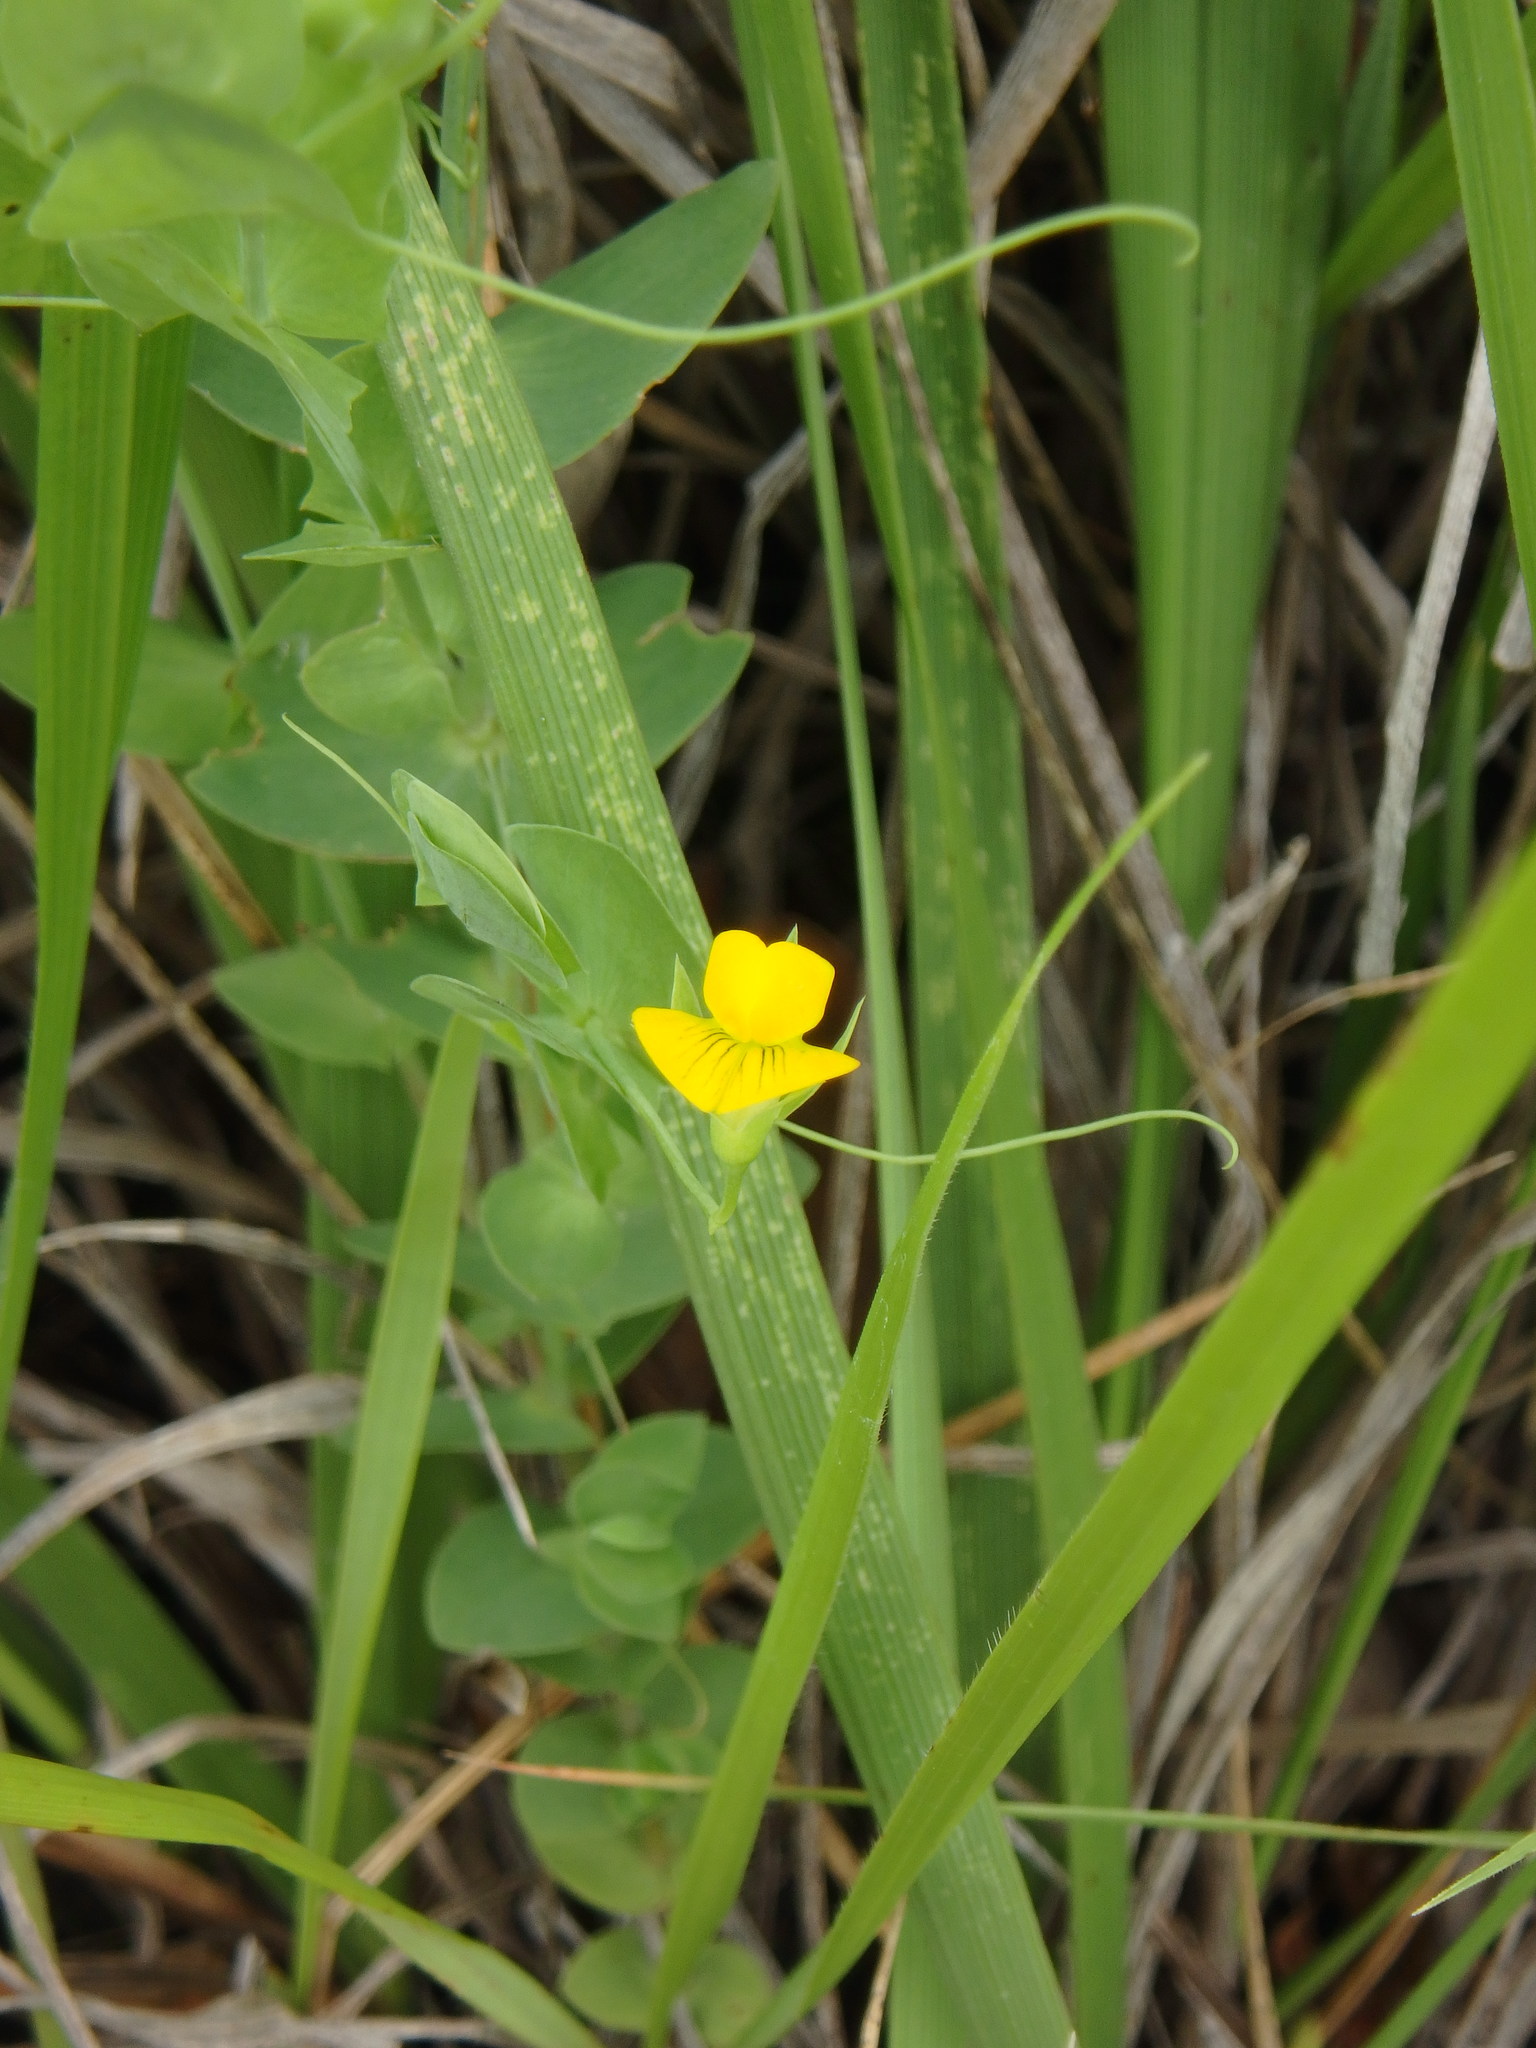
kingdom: Plantae
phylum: Tracheophyta
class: Magnoliopsida
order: Fabales
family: Fabaceae
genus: Lathyrus
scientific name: Lathyrus aphaca
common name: Yellow vetchling
